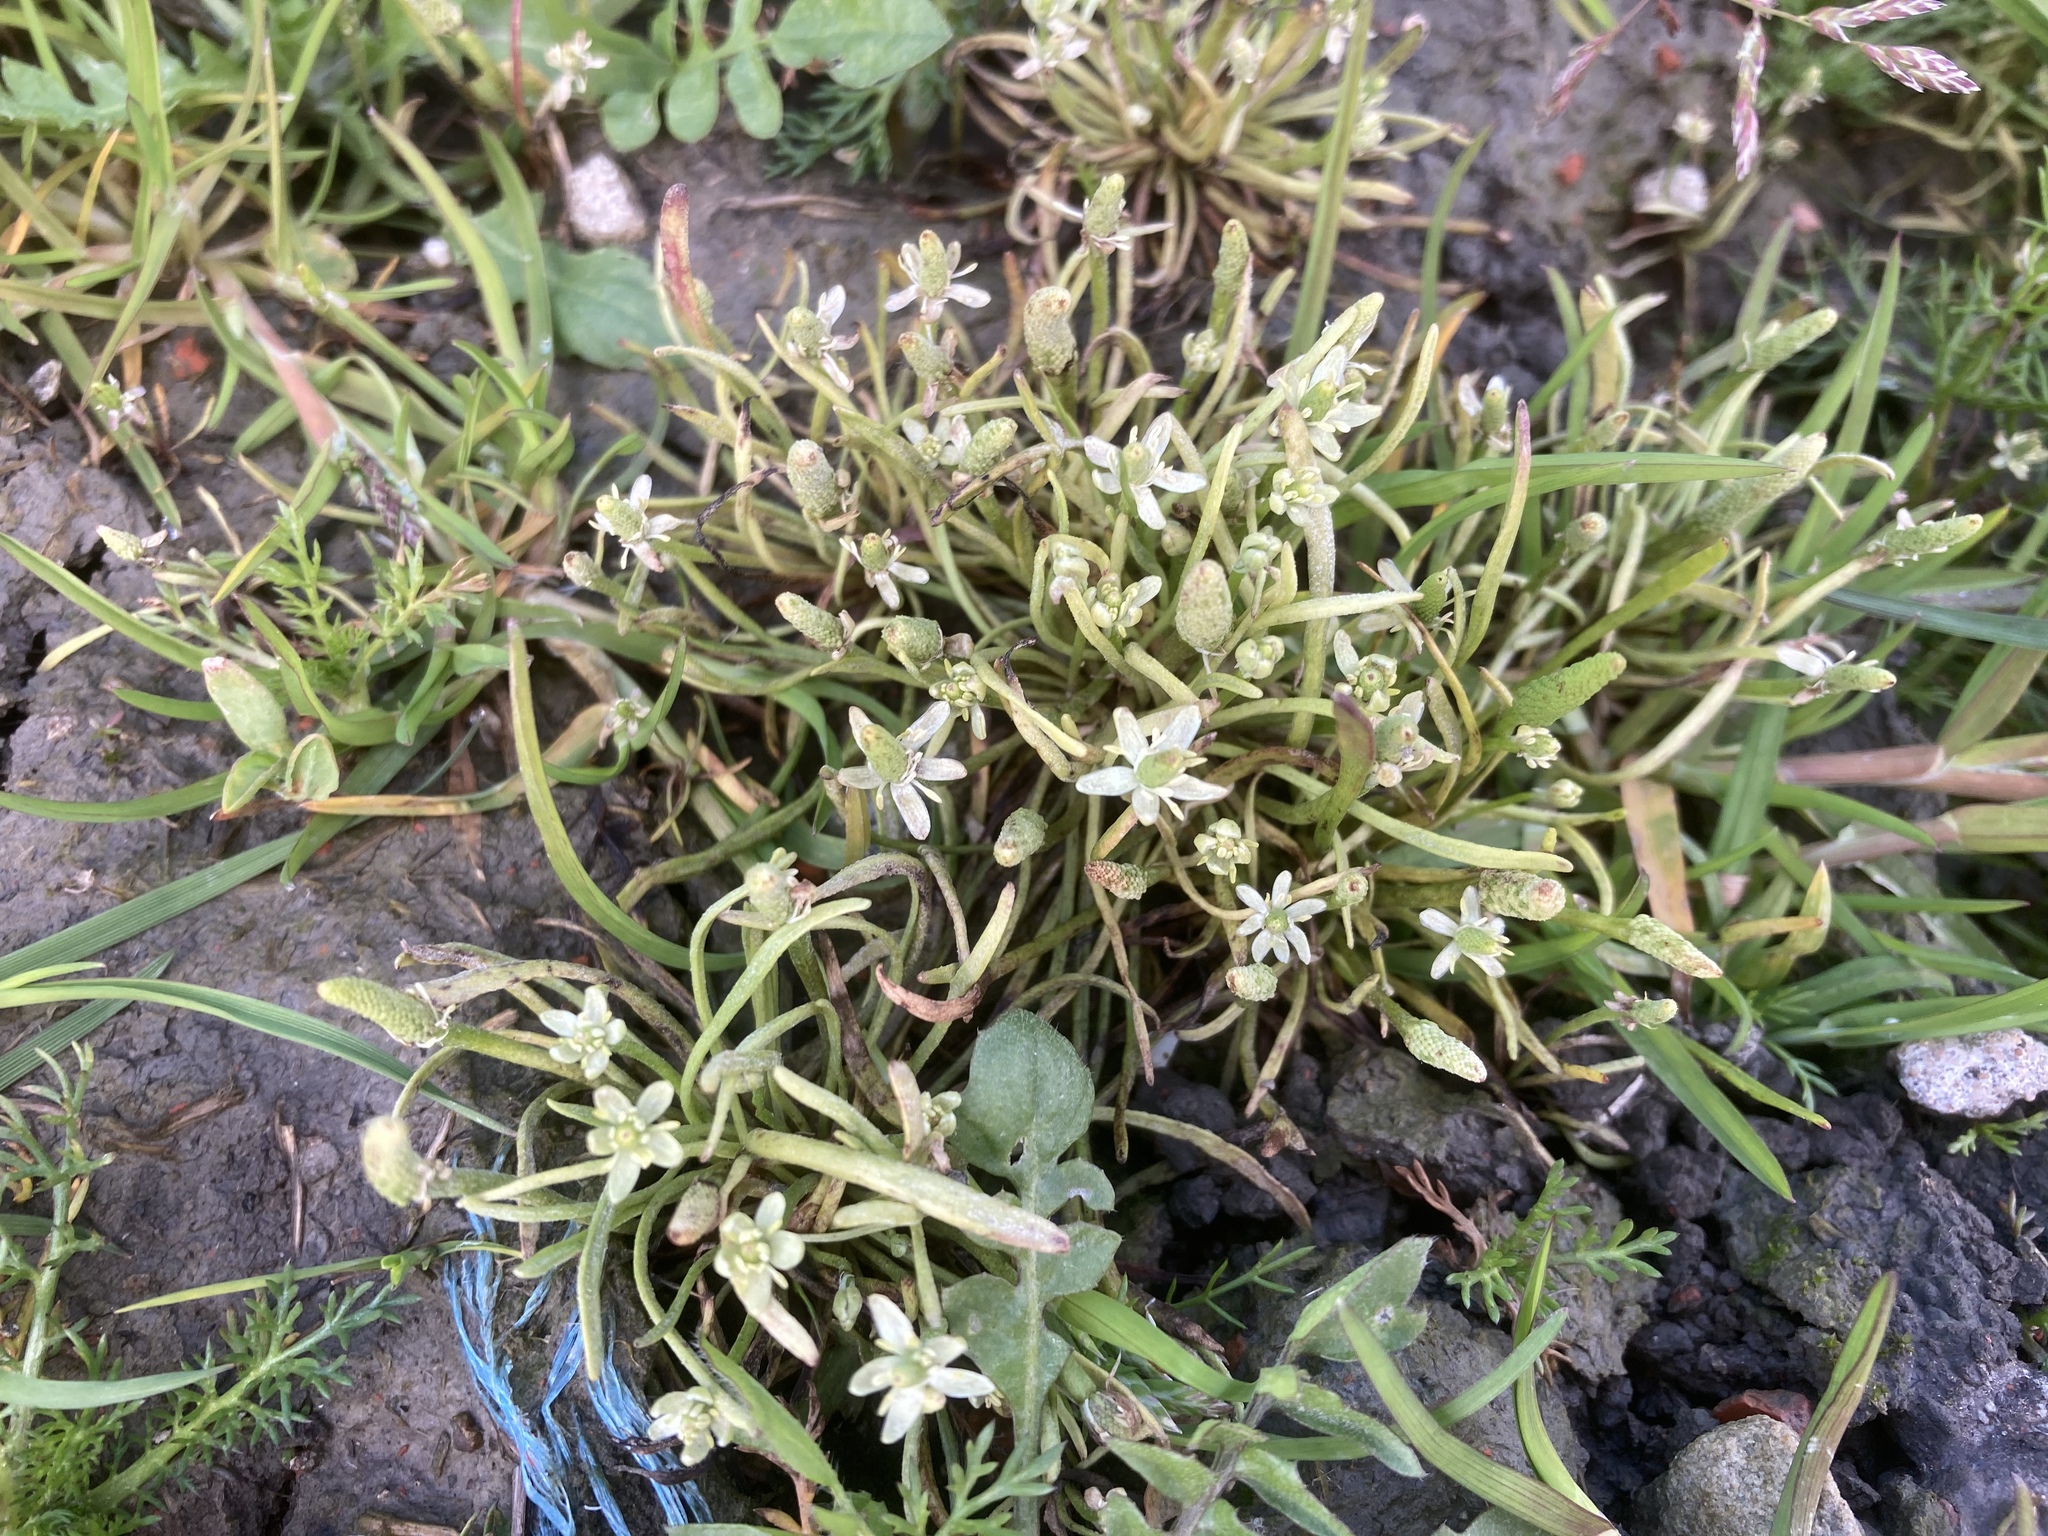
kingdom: Plantae
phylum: Tracheophyta
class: Magnoliopsida
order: Ranunculales
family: Ranunculaceae
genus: Myosurus
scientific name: Myosurus minimus
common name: Mousetail
